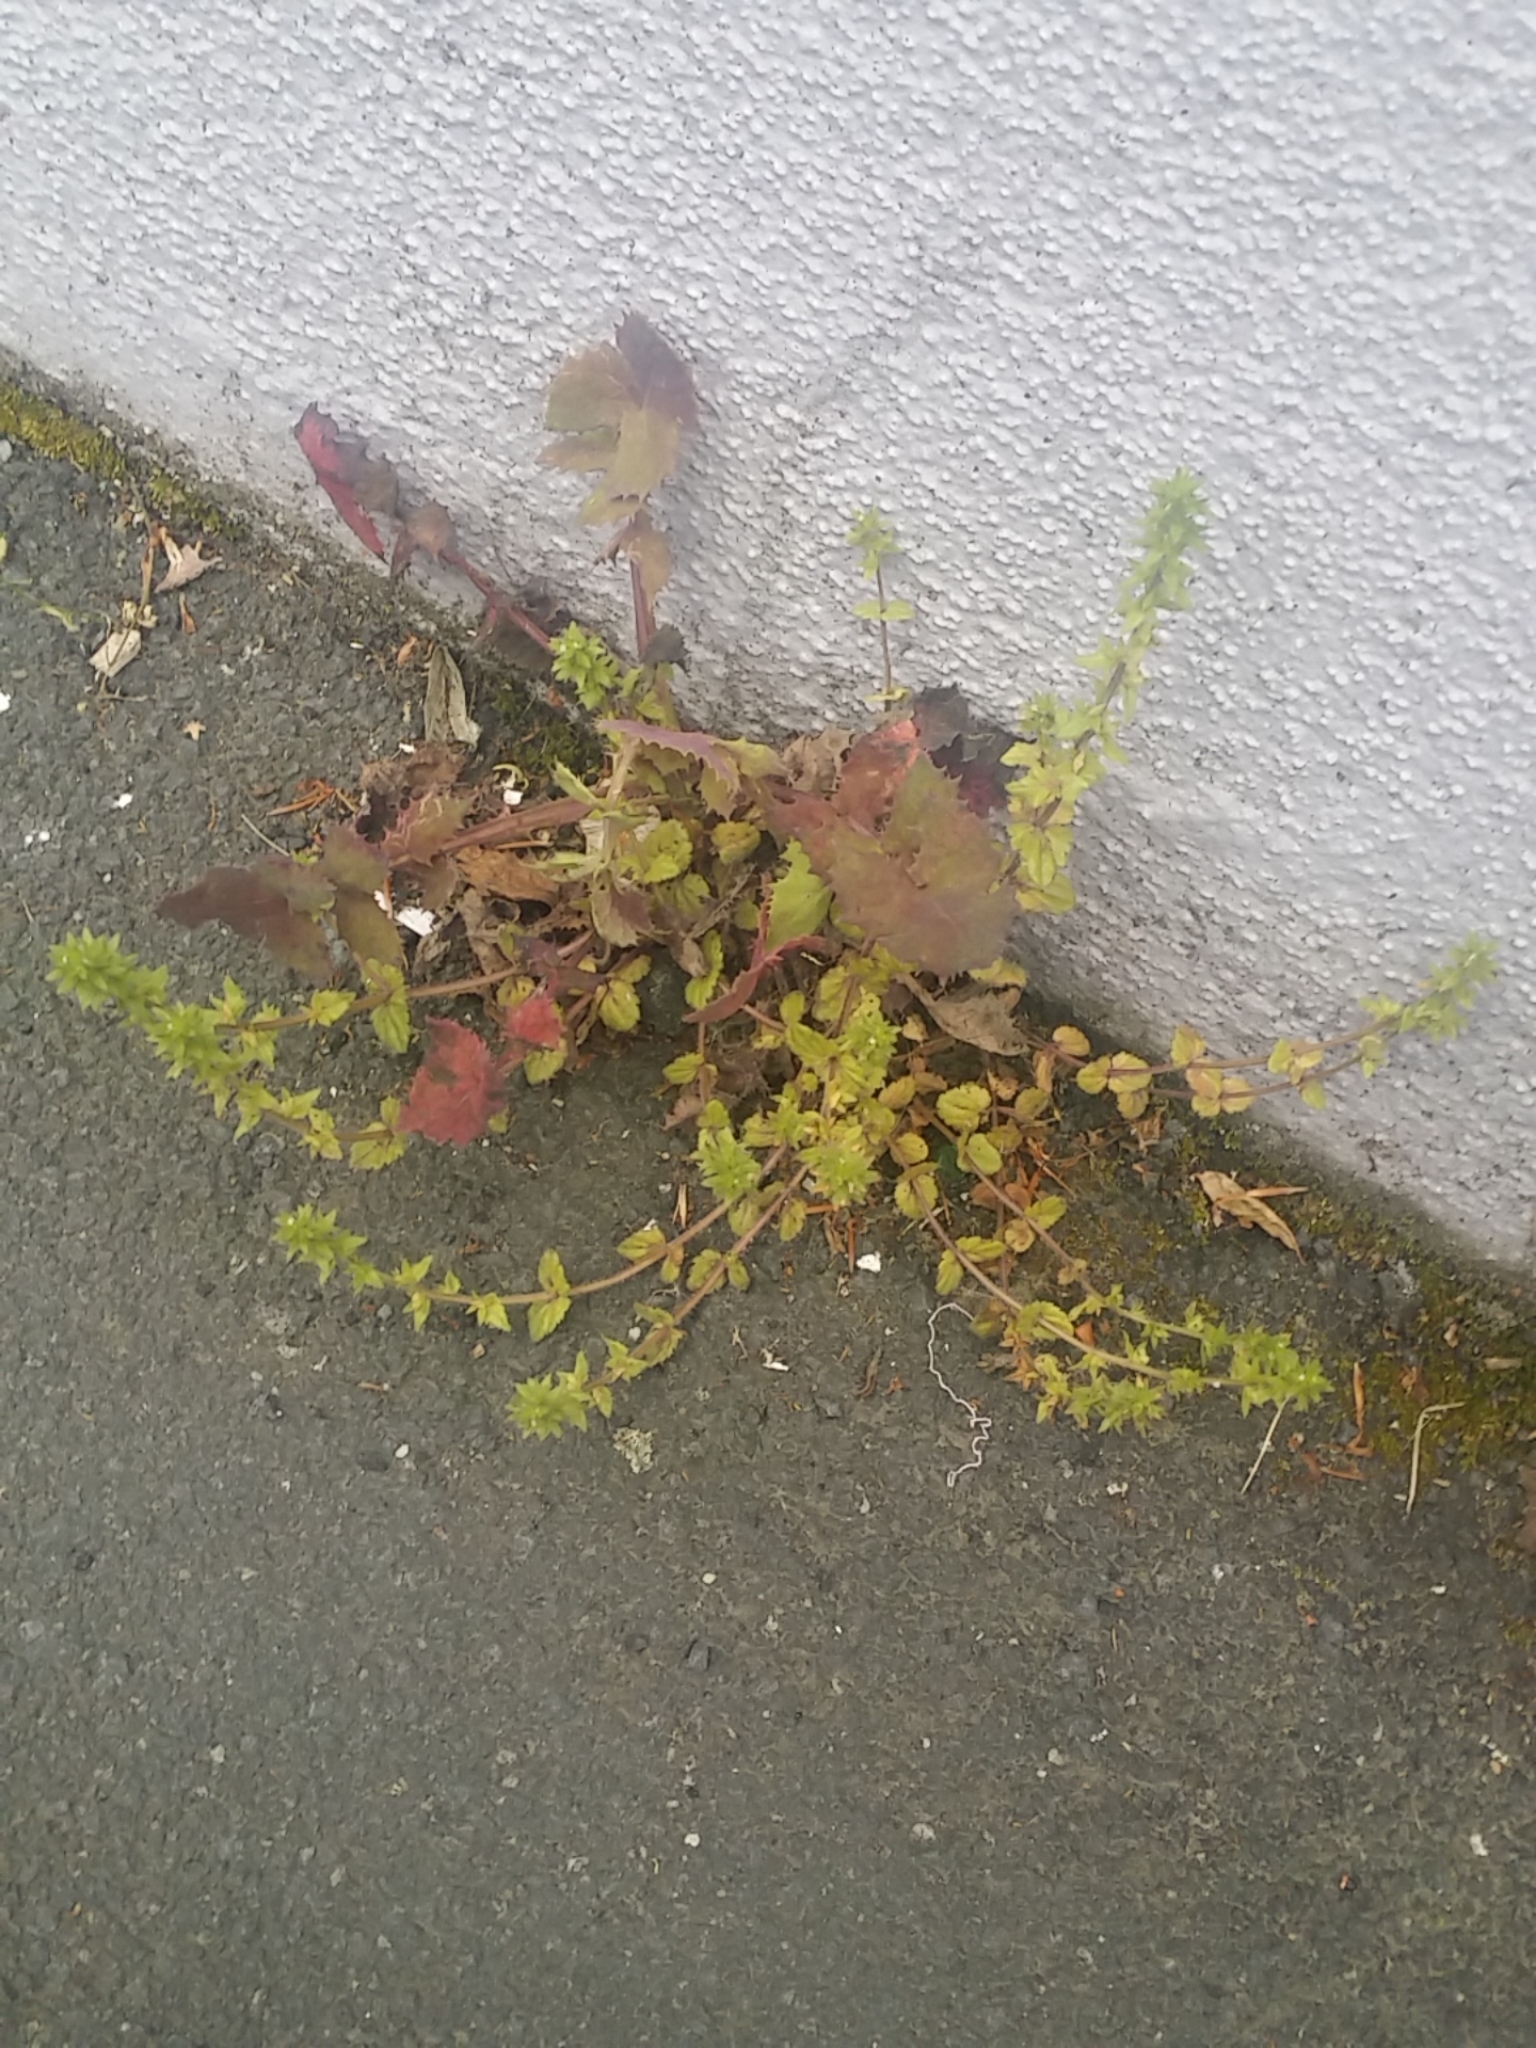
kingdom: Plantae
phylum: Tracheophyta
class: Magnoliopsida
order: Asterales
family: Asteraceae
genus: Sonchus
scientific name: Sonchus oleraceus
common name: Common sowthistle
